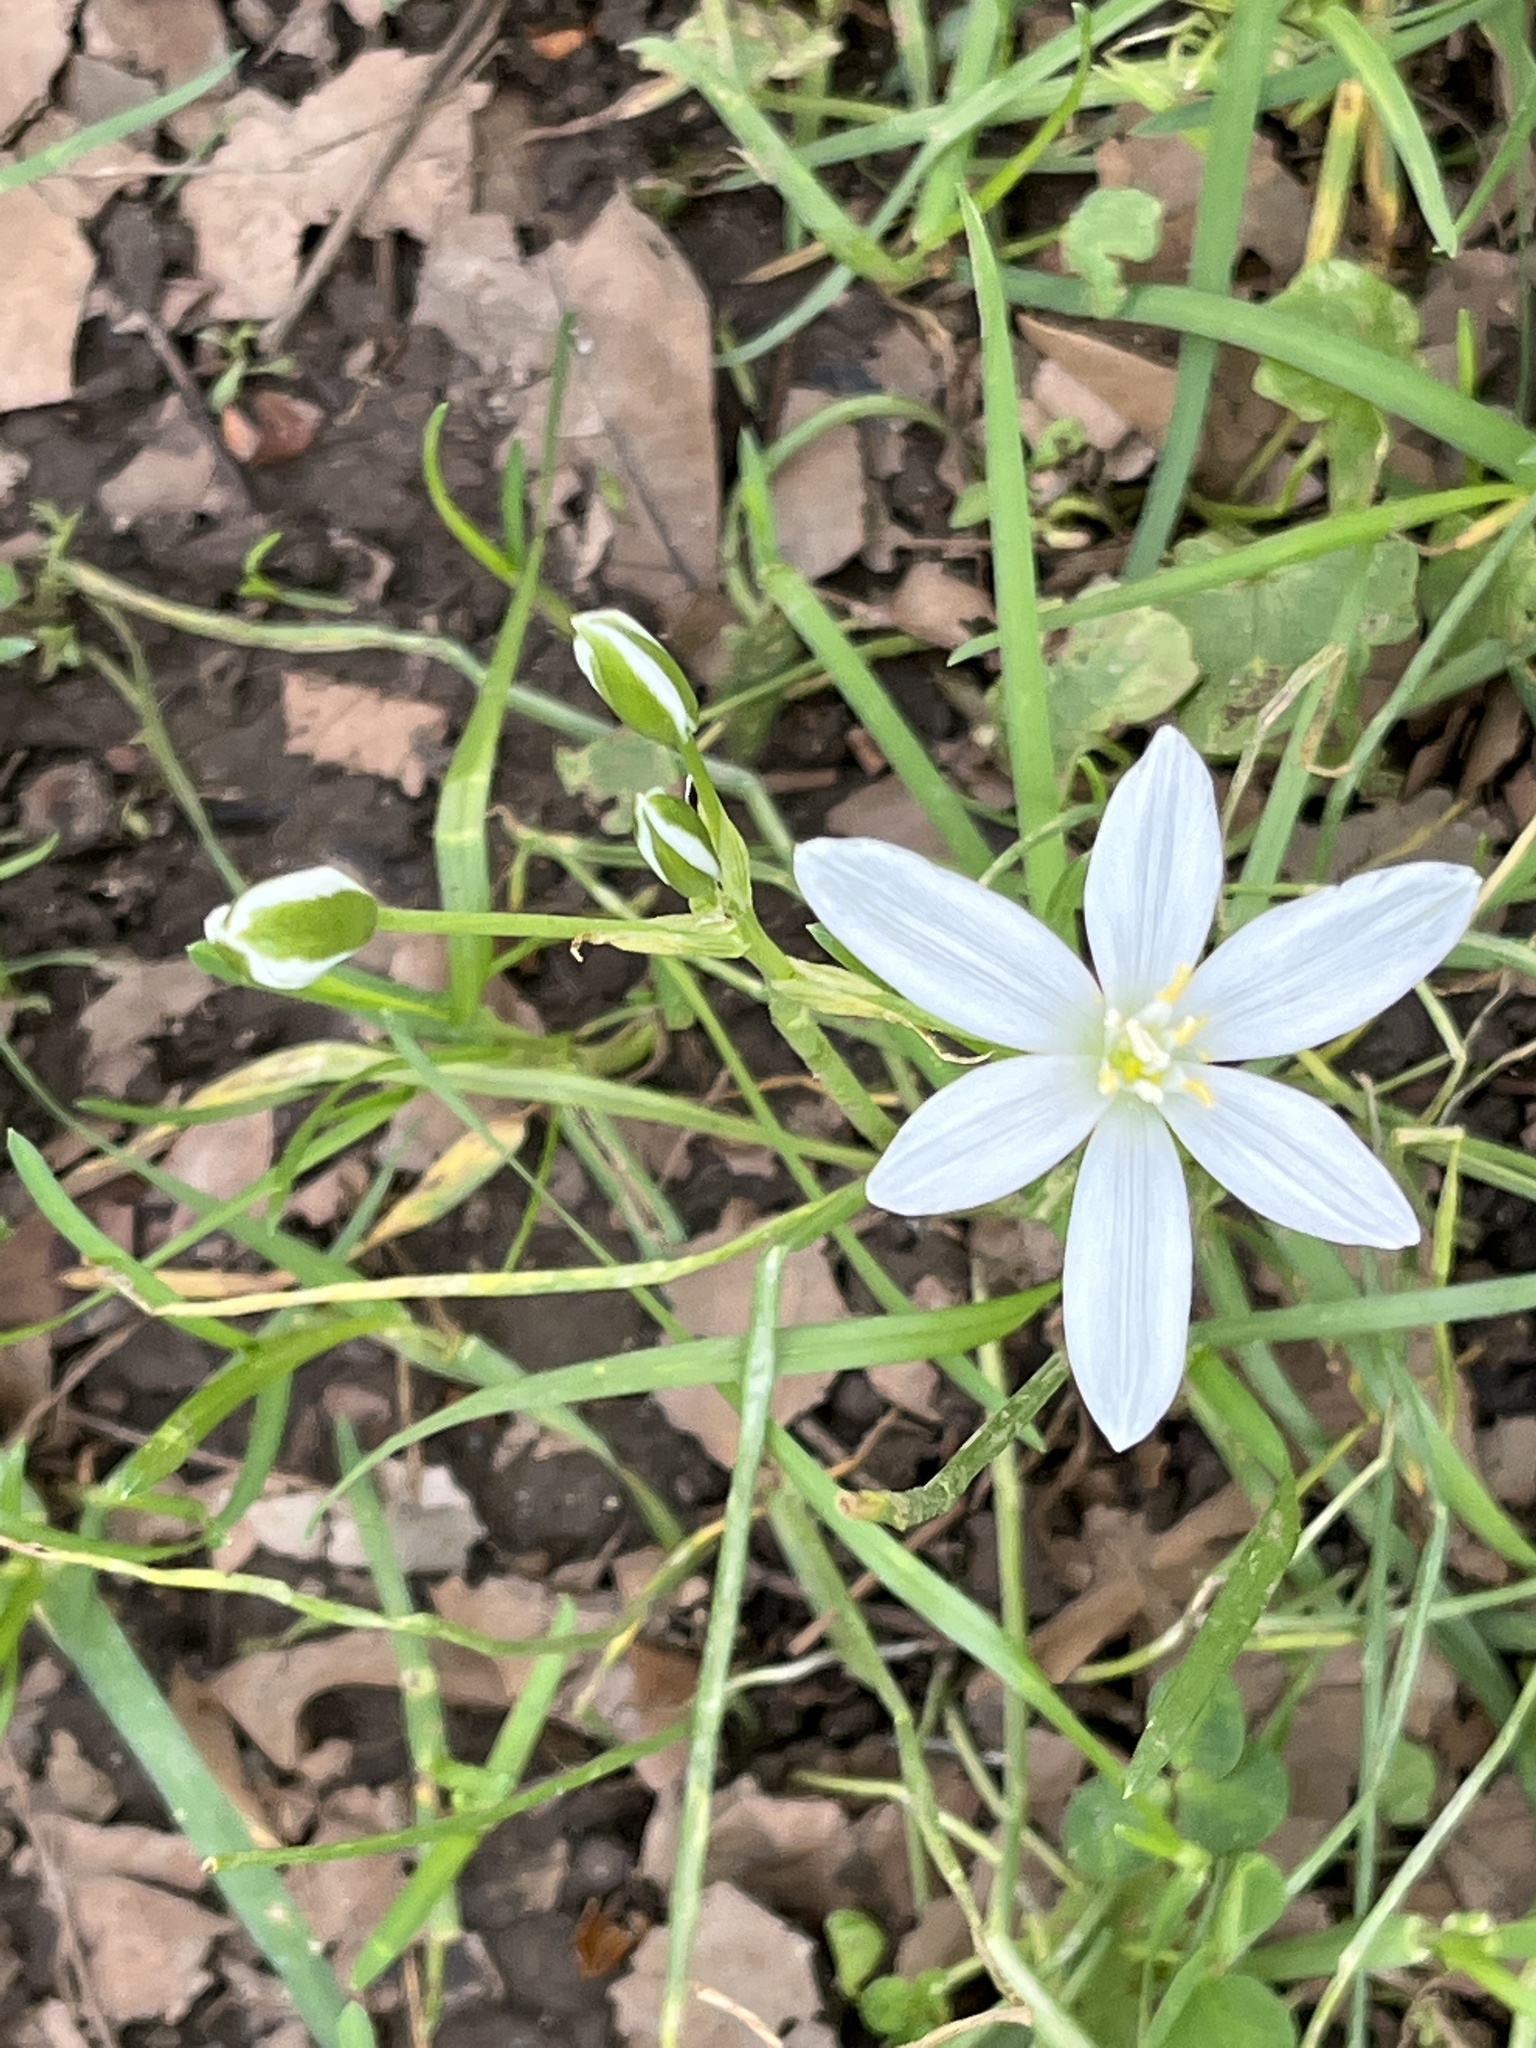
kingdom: Plantae
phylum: Tracheophyta
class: Liliopsida
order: Asparagales
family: Asparagaceae
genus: Ornithogalum
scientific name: Ornithogalum umbellatum
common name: Garden star-of-bethlehem
